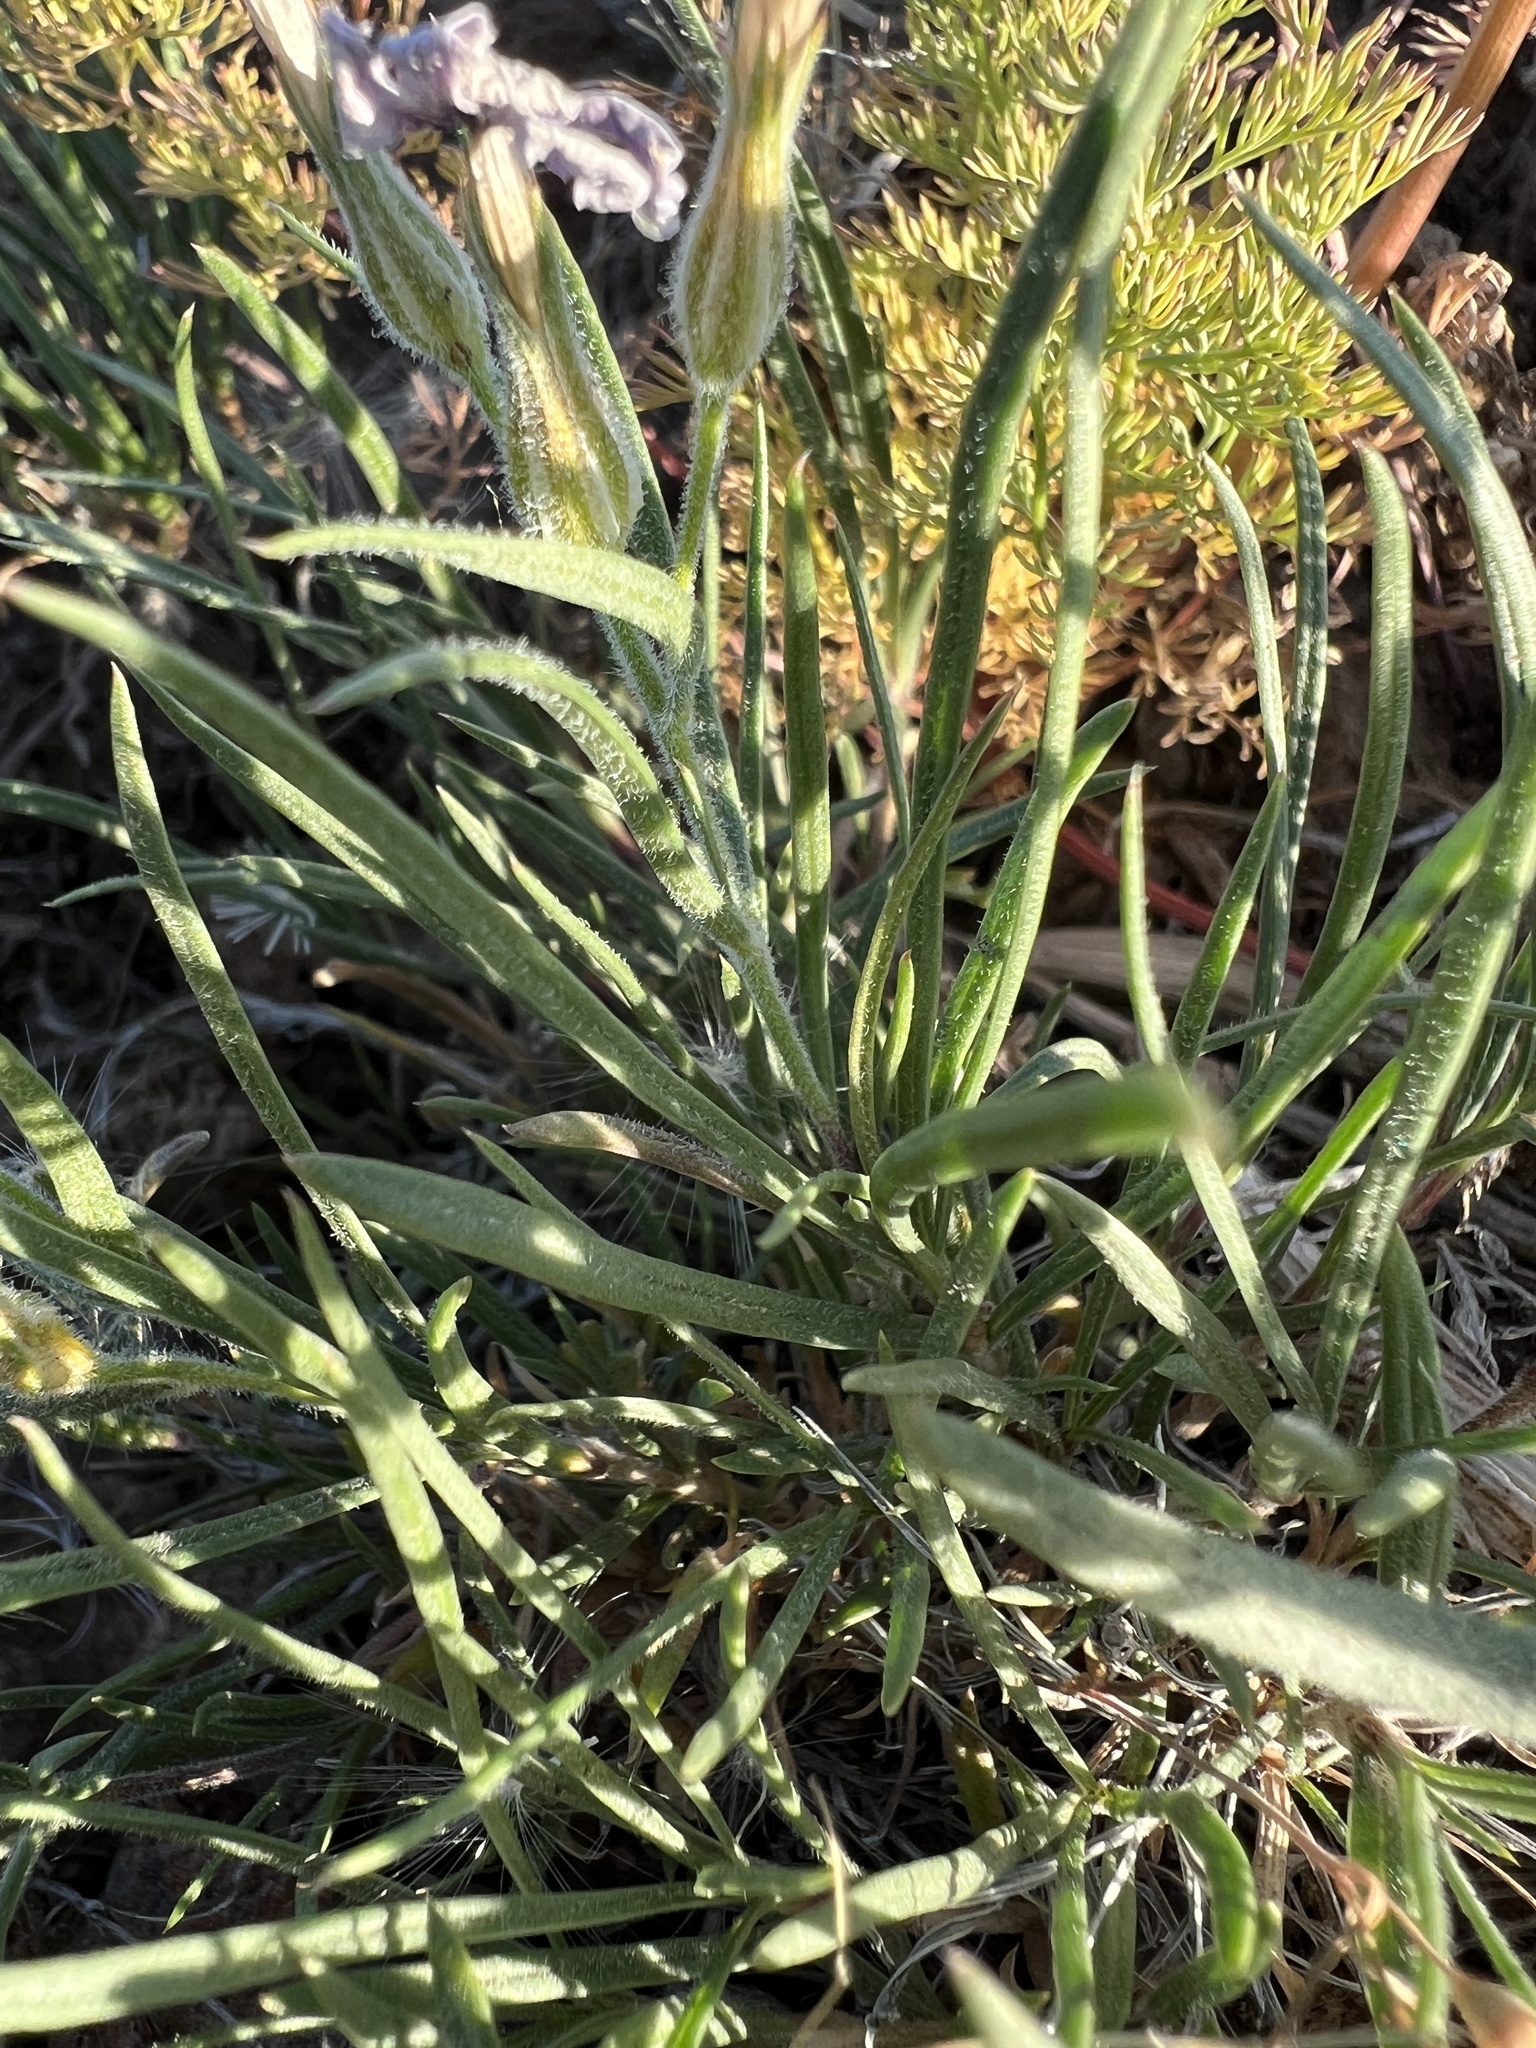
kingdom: Plantae
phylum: Tracheophyta
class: Magnoliopsida
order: Ericales
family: Polemoniaceae
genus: Phlox
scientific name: Phlox longifolia
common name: Longleaf phlox
